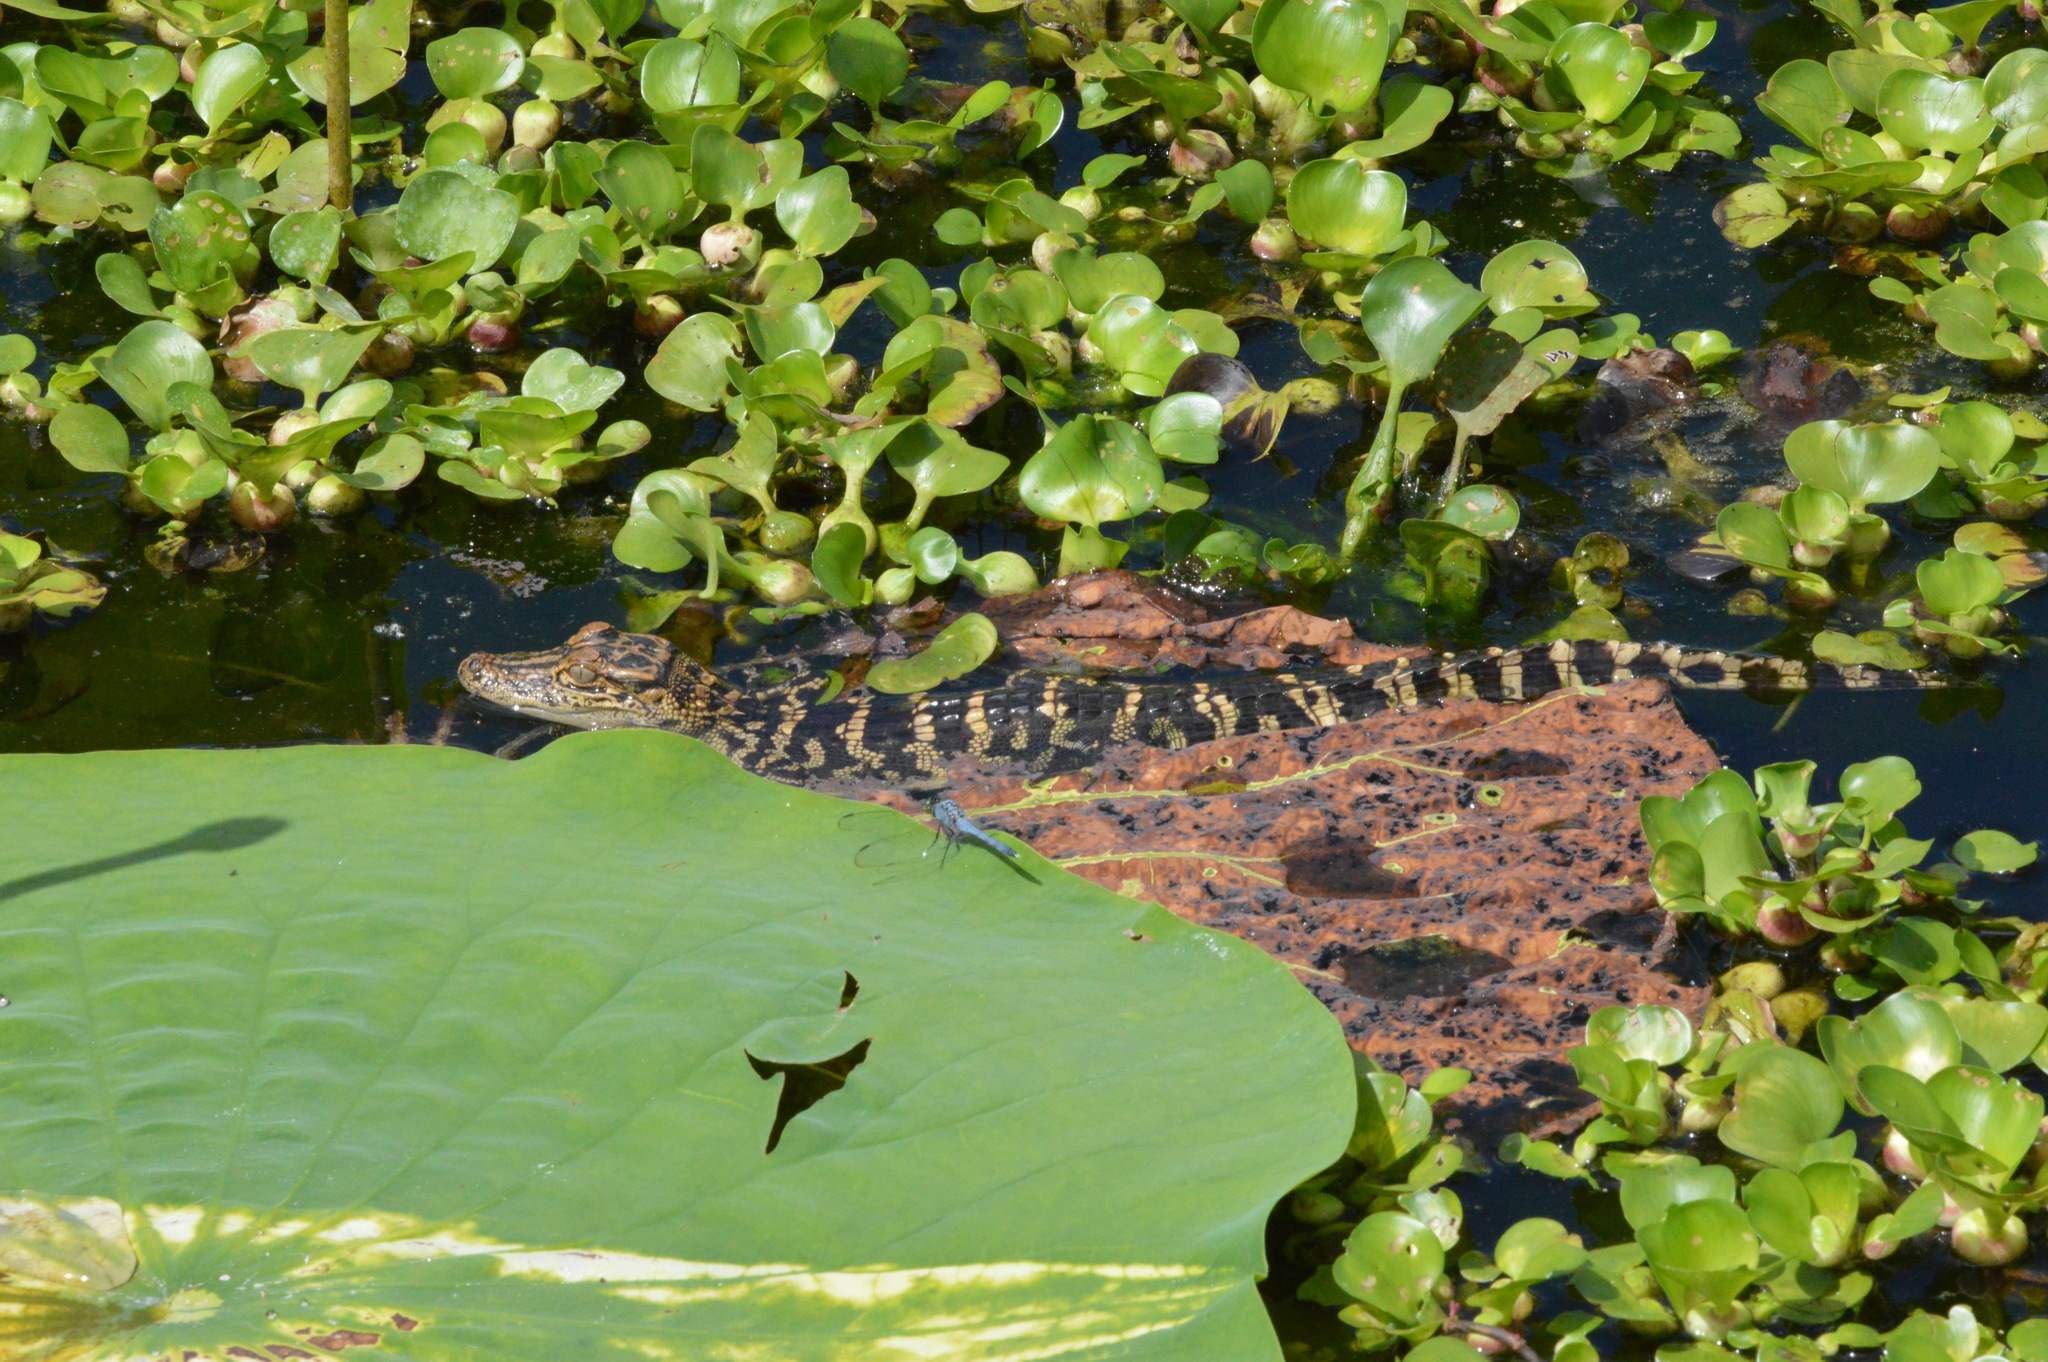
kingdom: Animalia
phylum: Chordata
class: Crocodylia
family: Alligatoridae
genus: Alligator
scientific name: Alligator mississippiensis
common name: American alligator
